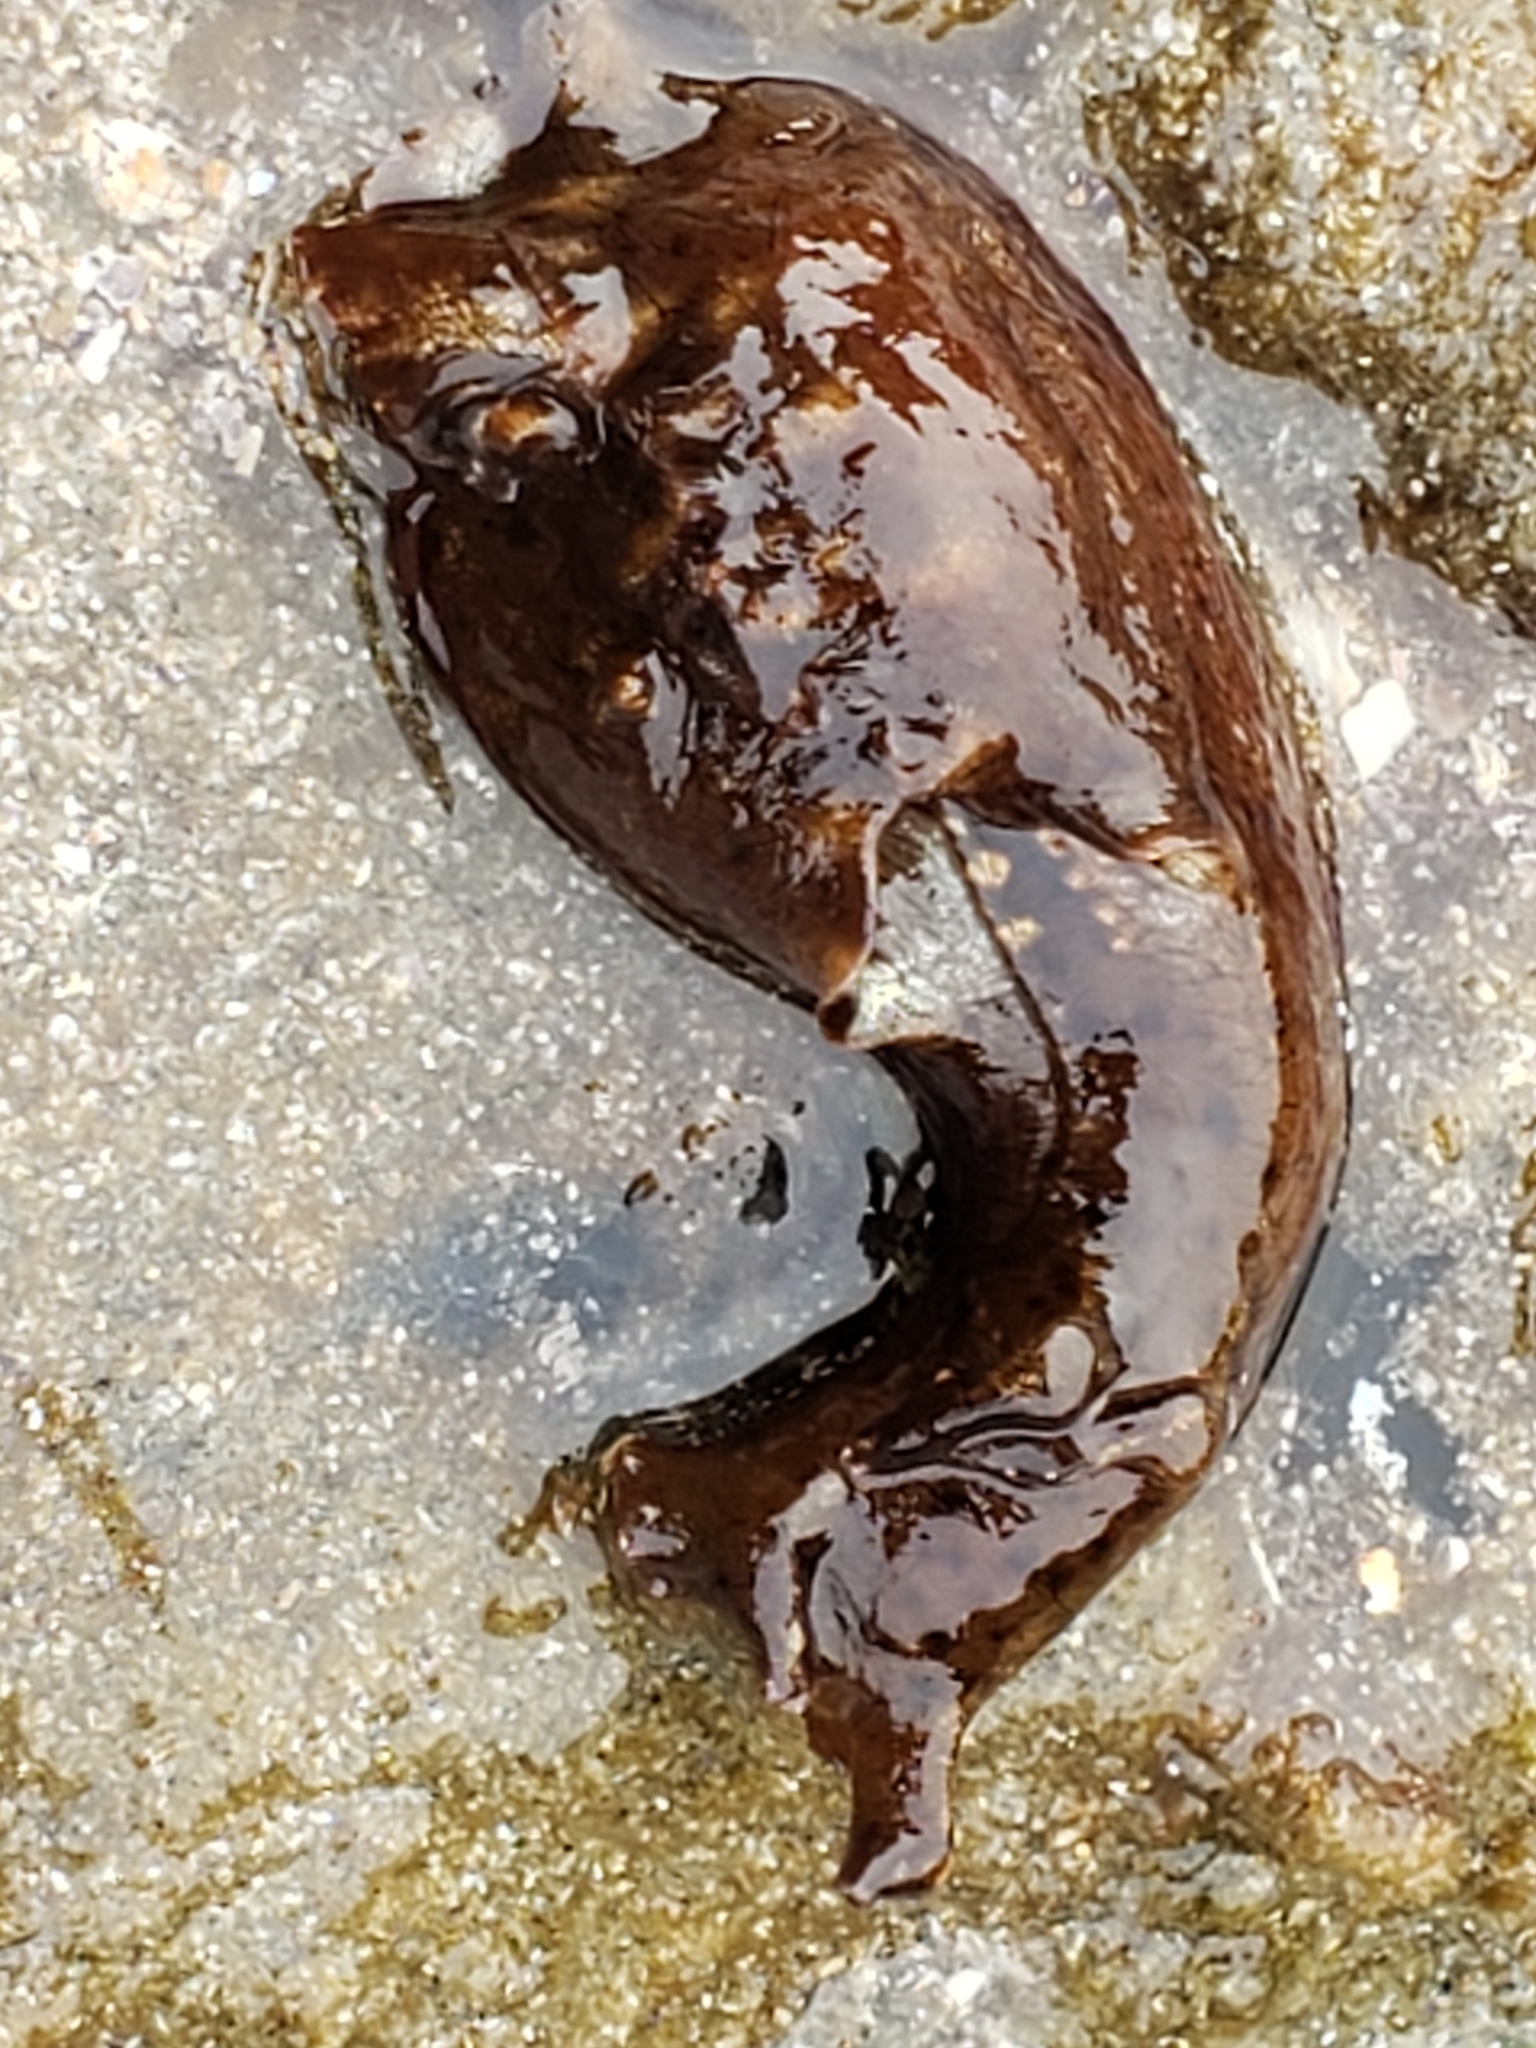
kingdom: Animalia
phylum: Mollusca
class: Gastropoda
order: Aplysiida
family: Aplysiidae
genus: Aplysia
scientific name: Aplysia californica
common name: California seahare
